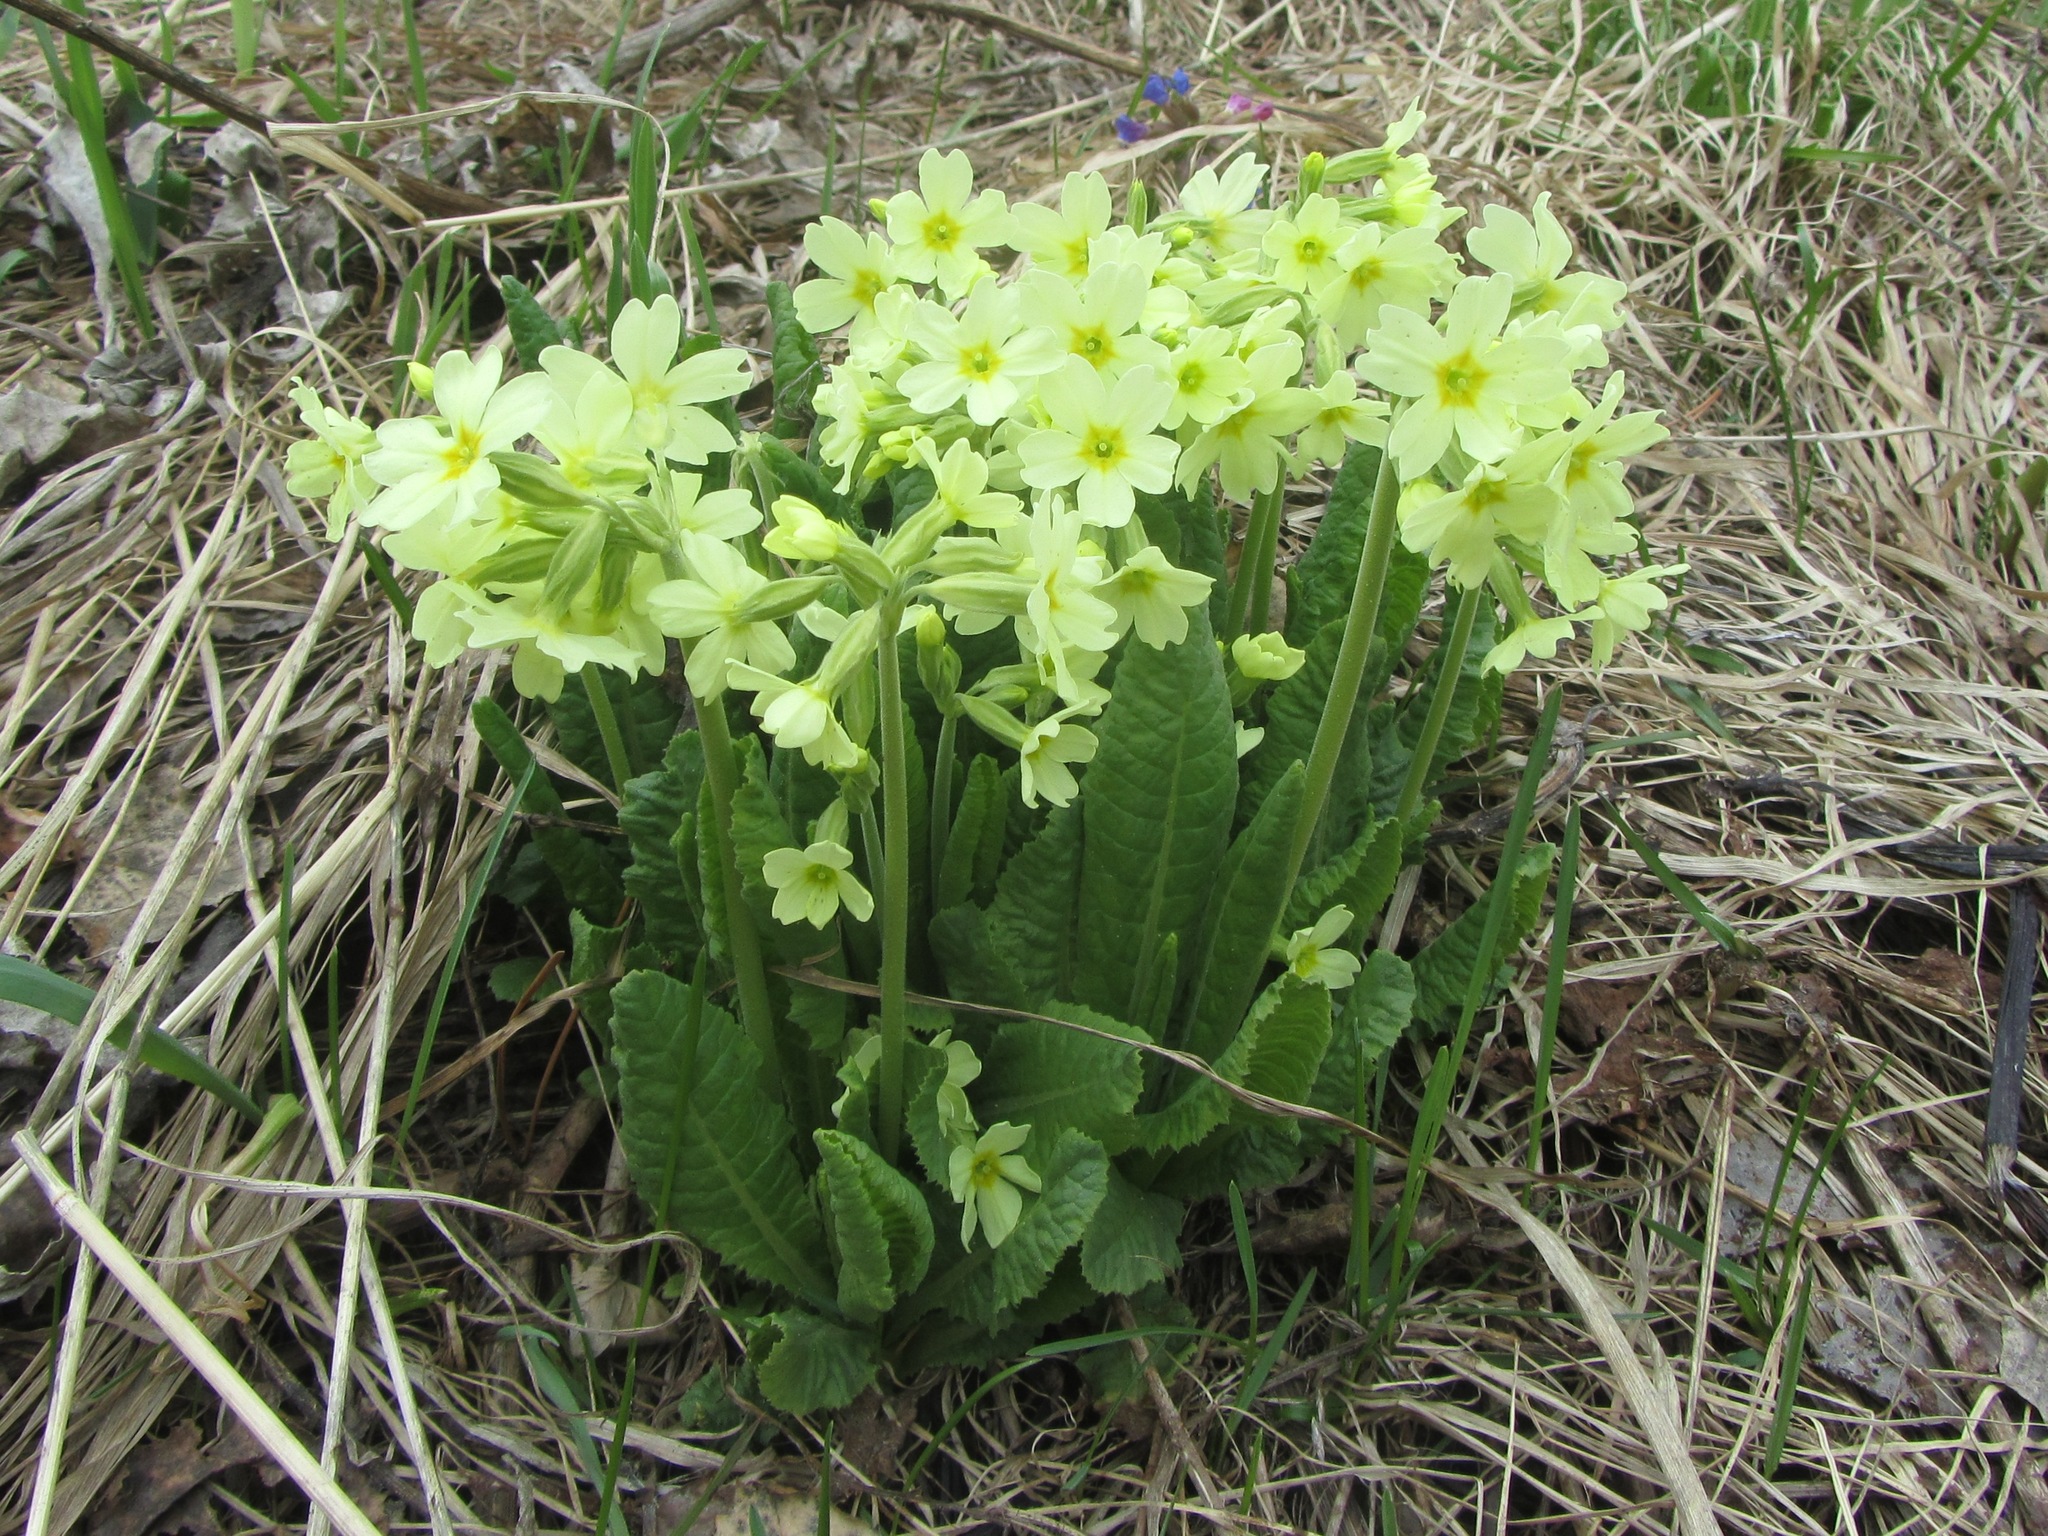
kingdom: Plantae
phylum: Tracheophyta
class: Magnoliopsida
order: Ericales
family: Primulaceae
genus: Primula
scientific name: Primula elatior
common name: Oxlip
